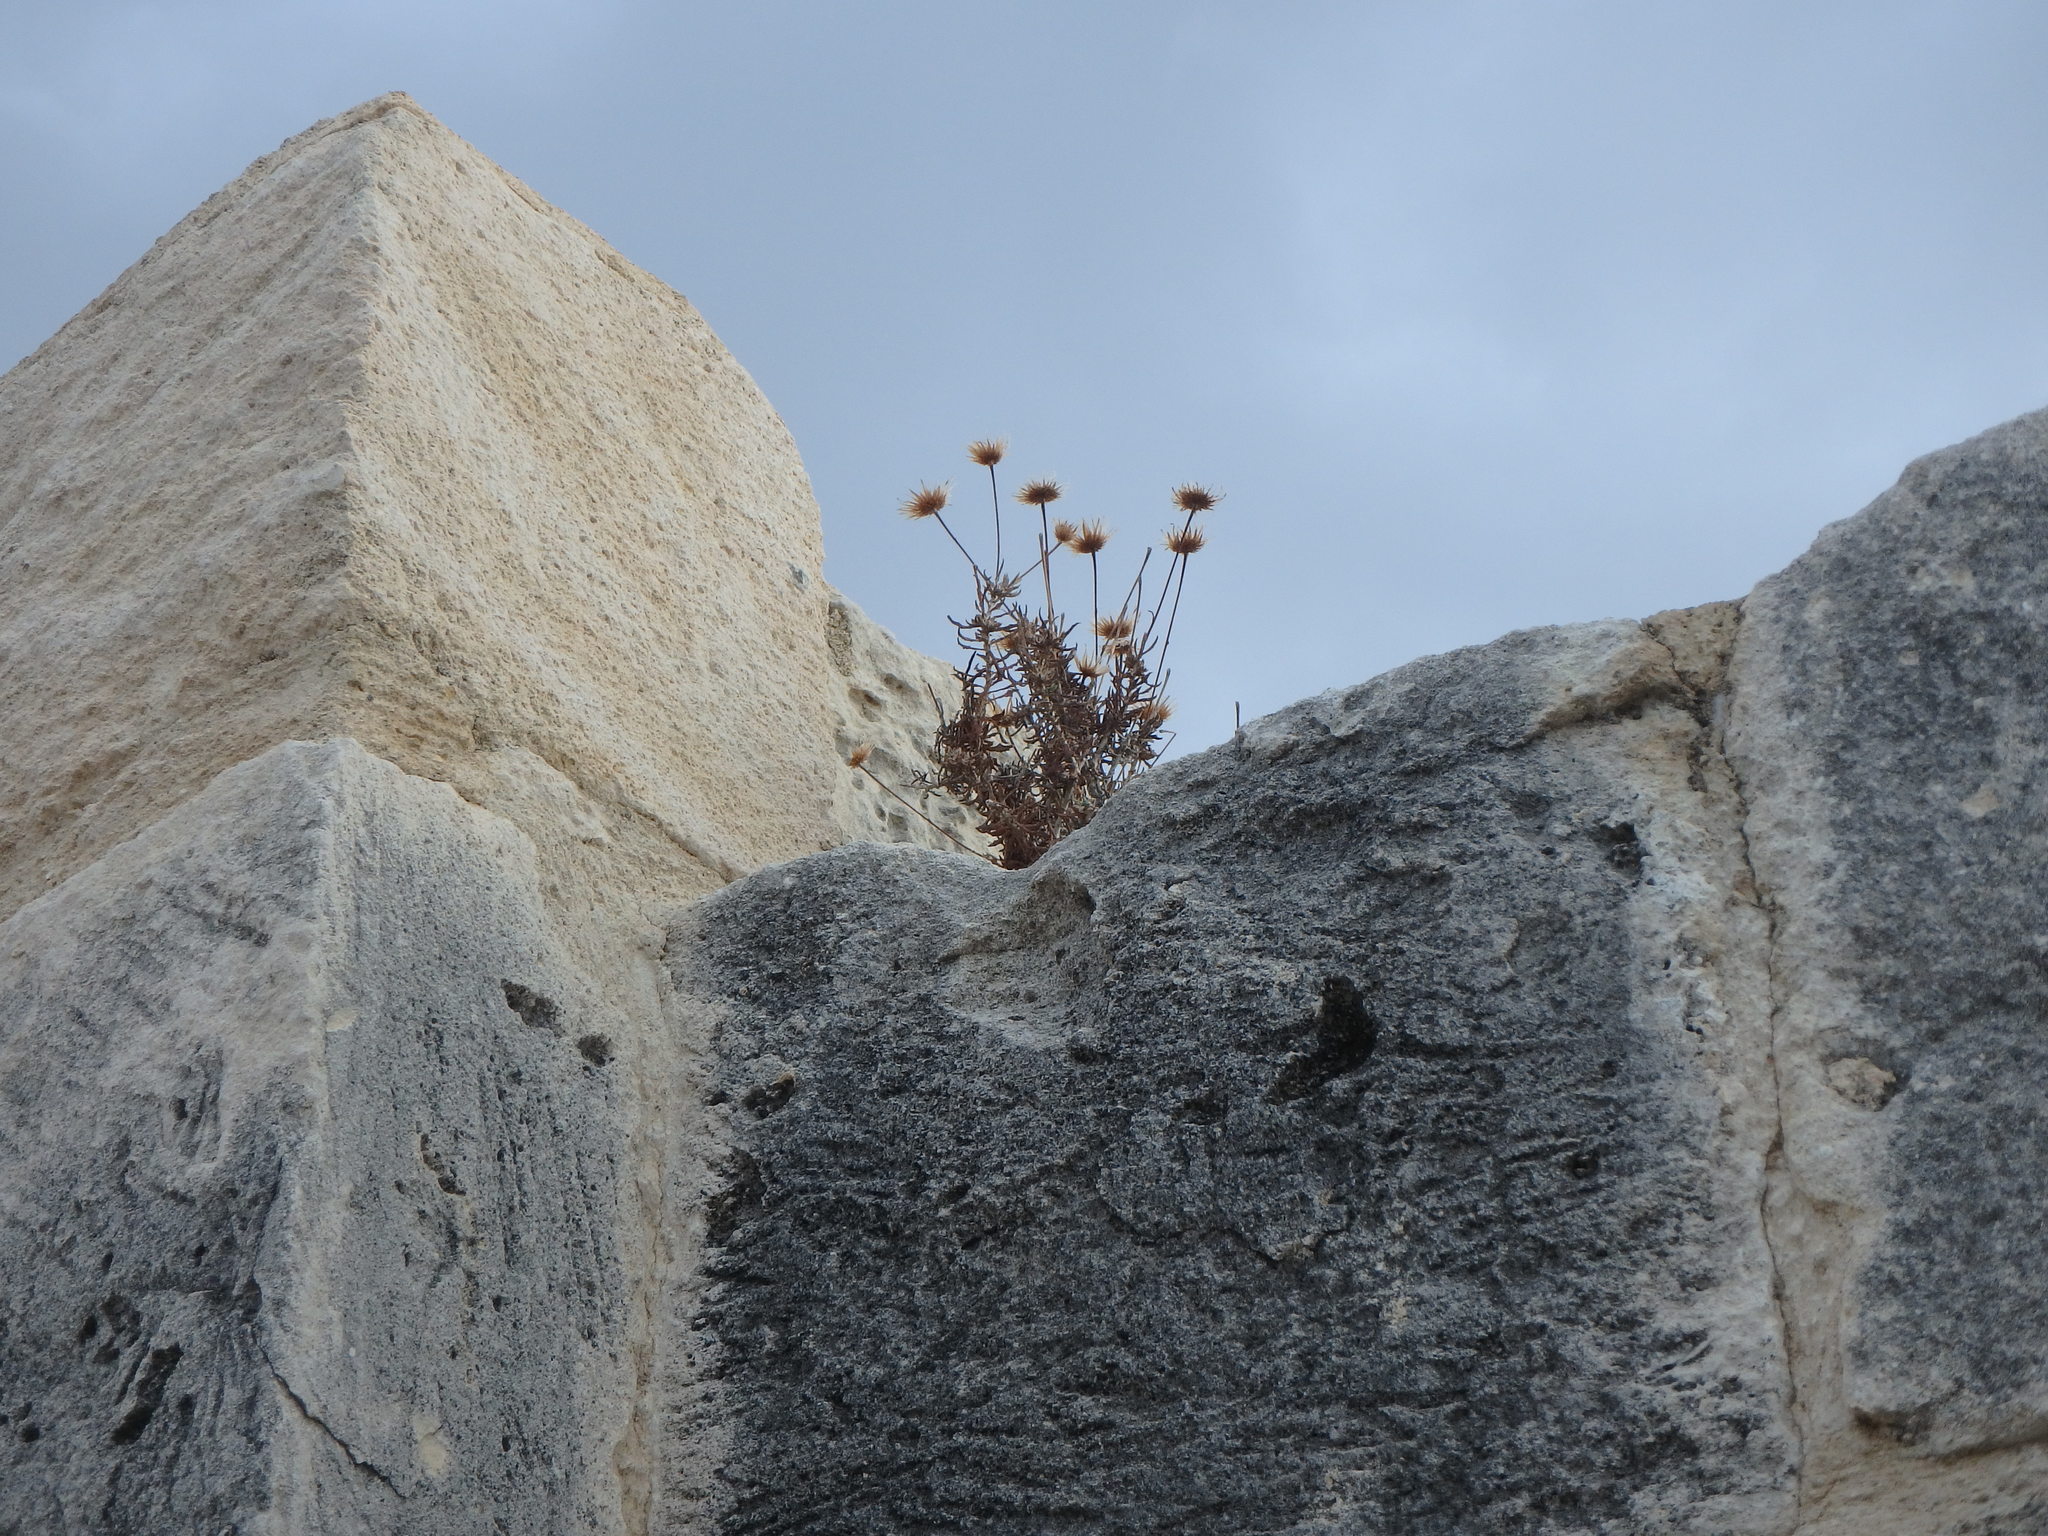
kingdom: Plantae
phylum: Tracheophyta
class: Magnoliopsida
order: Asterales
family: Asteraceae
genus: Phagnalon
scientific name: Phagnalon
